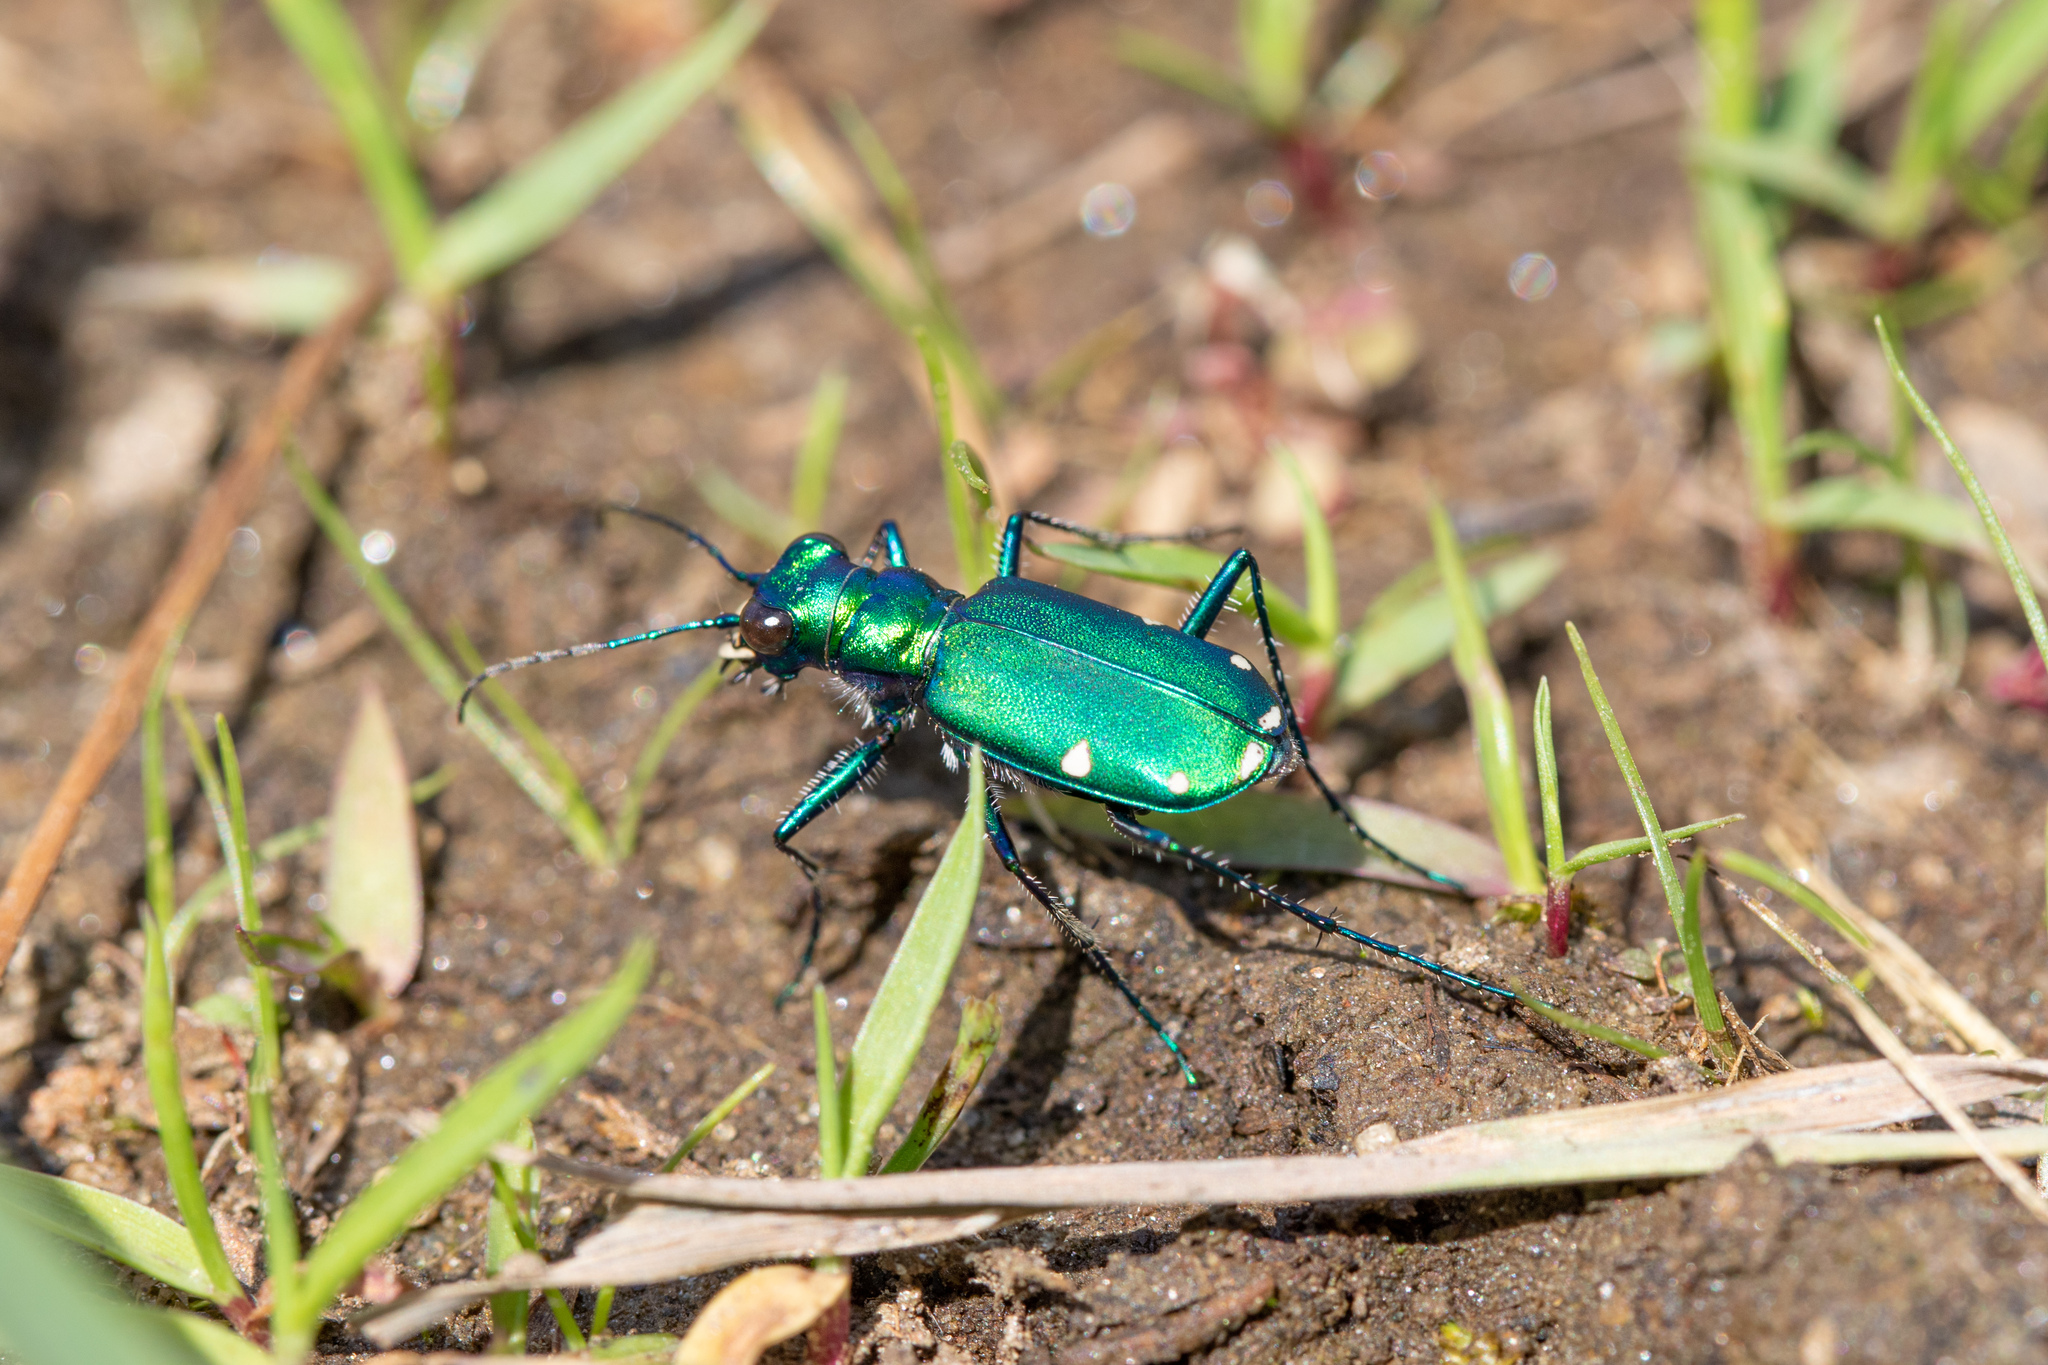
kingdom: Animalia
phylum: Arthropoda
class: Insecta
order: Coleoptera
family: Carabidae
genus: Cicindela
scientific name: Cicindela sexguttata
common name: Six-spotted tiger beetle
